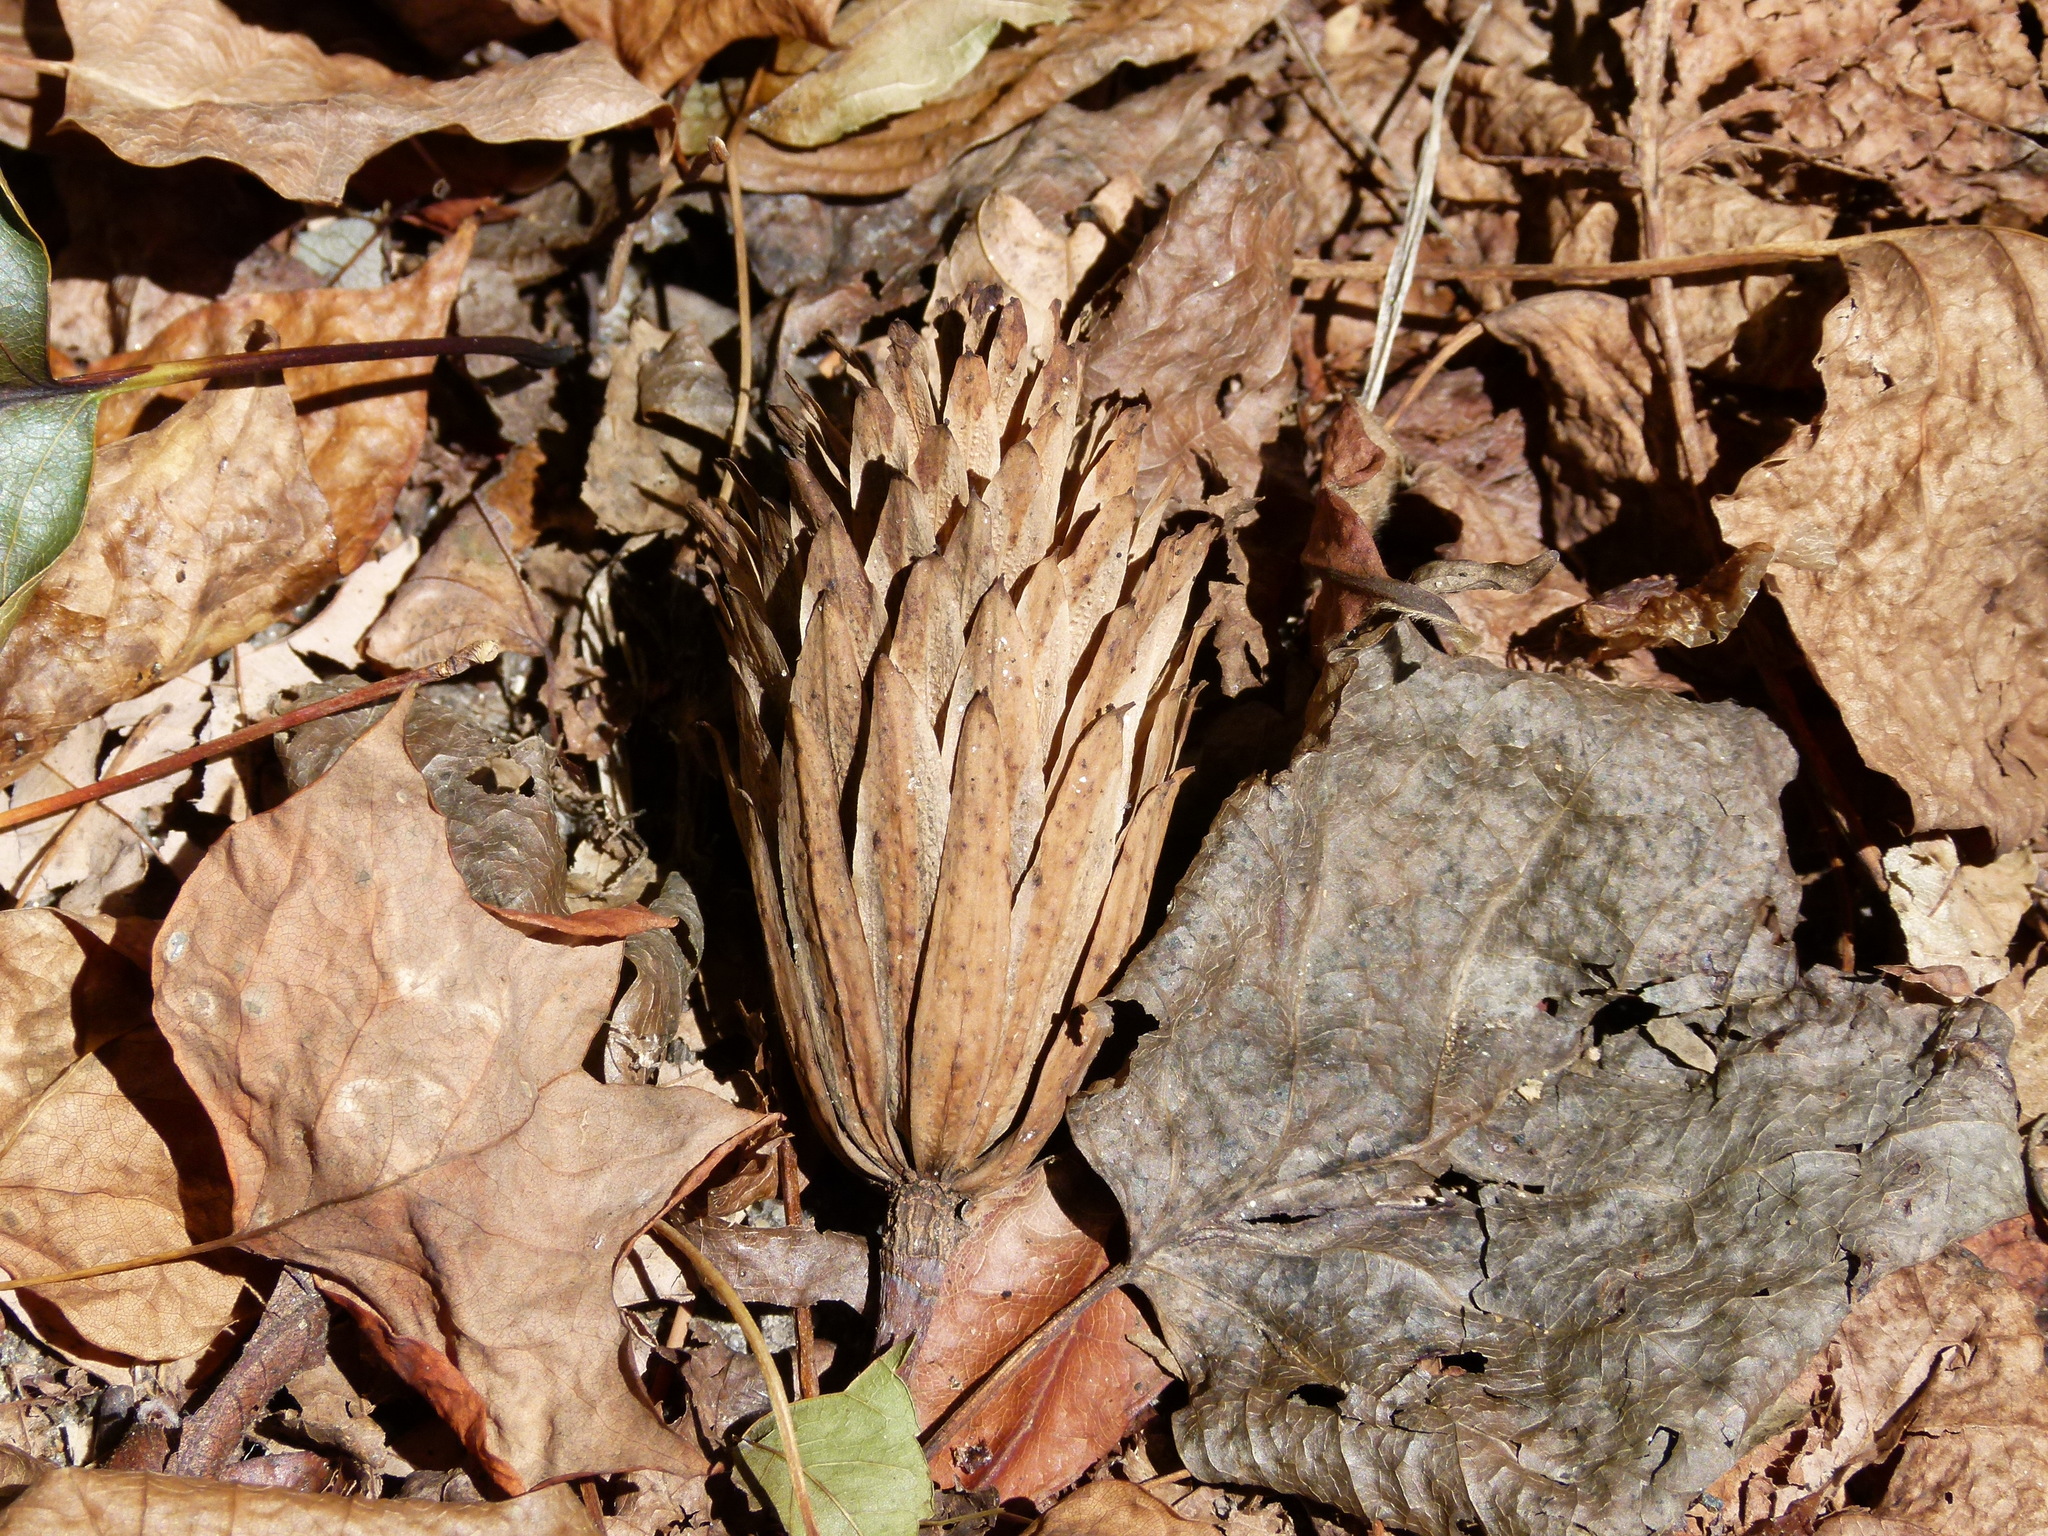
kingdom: Plantae
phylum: Tracheophyta
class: Magnoliopsida
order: Magnoliales
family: Magnoliaceae
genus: Liriodendron
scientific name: Liriodendron tulipifera
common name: Tulip tree
